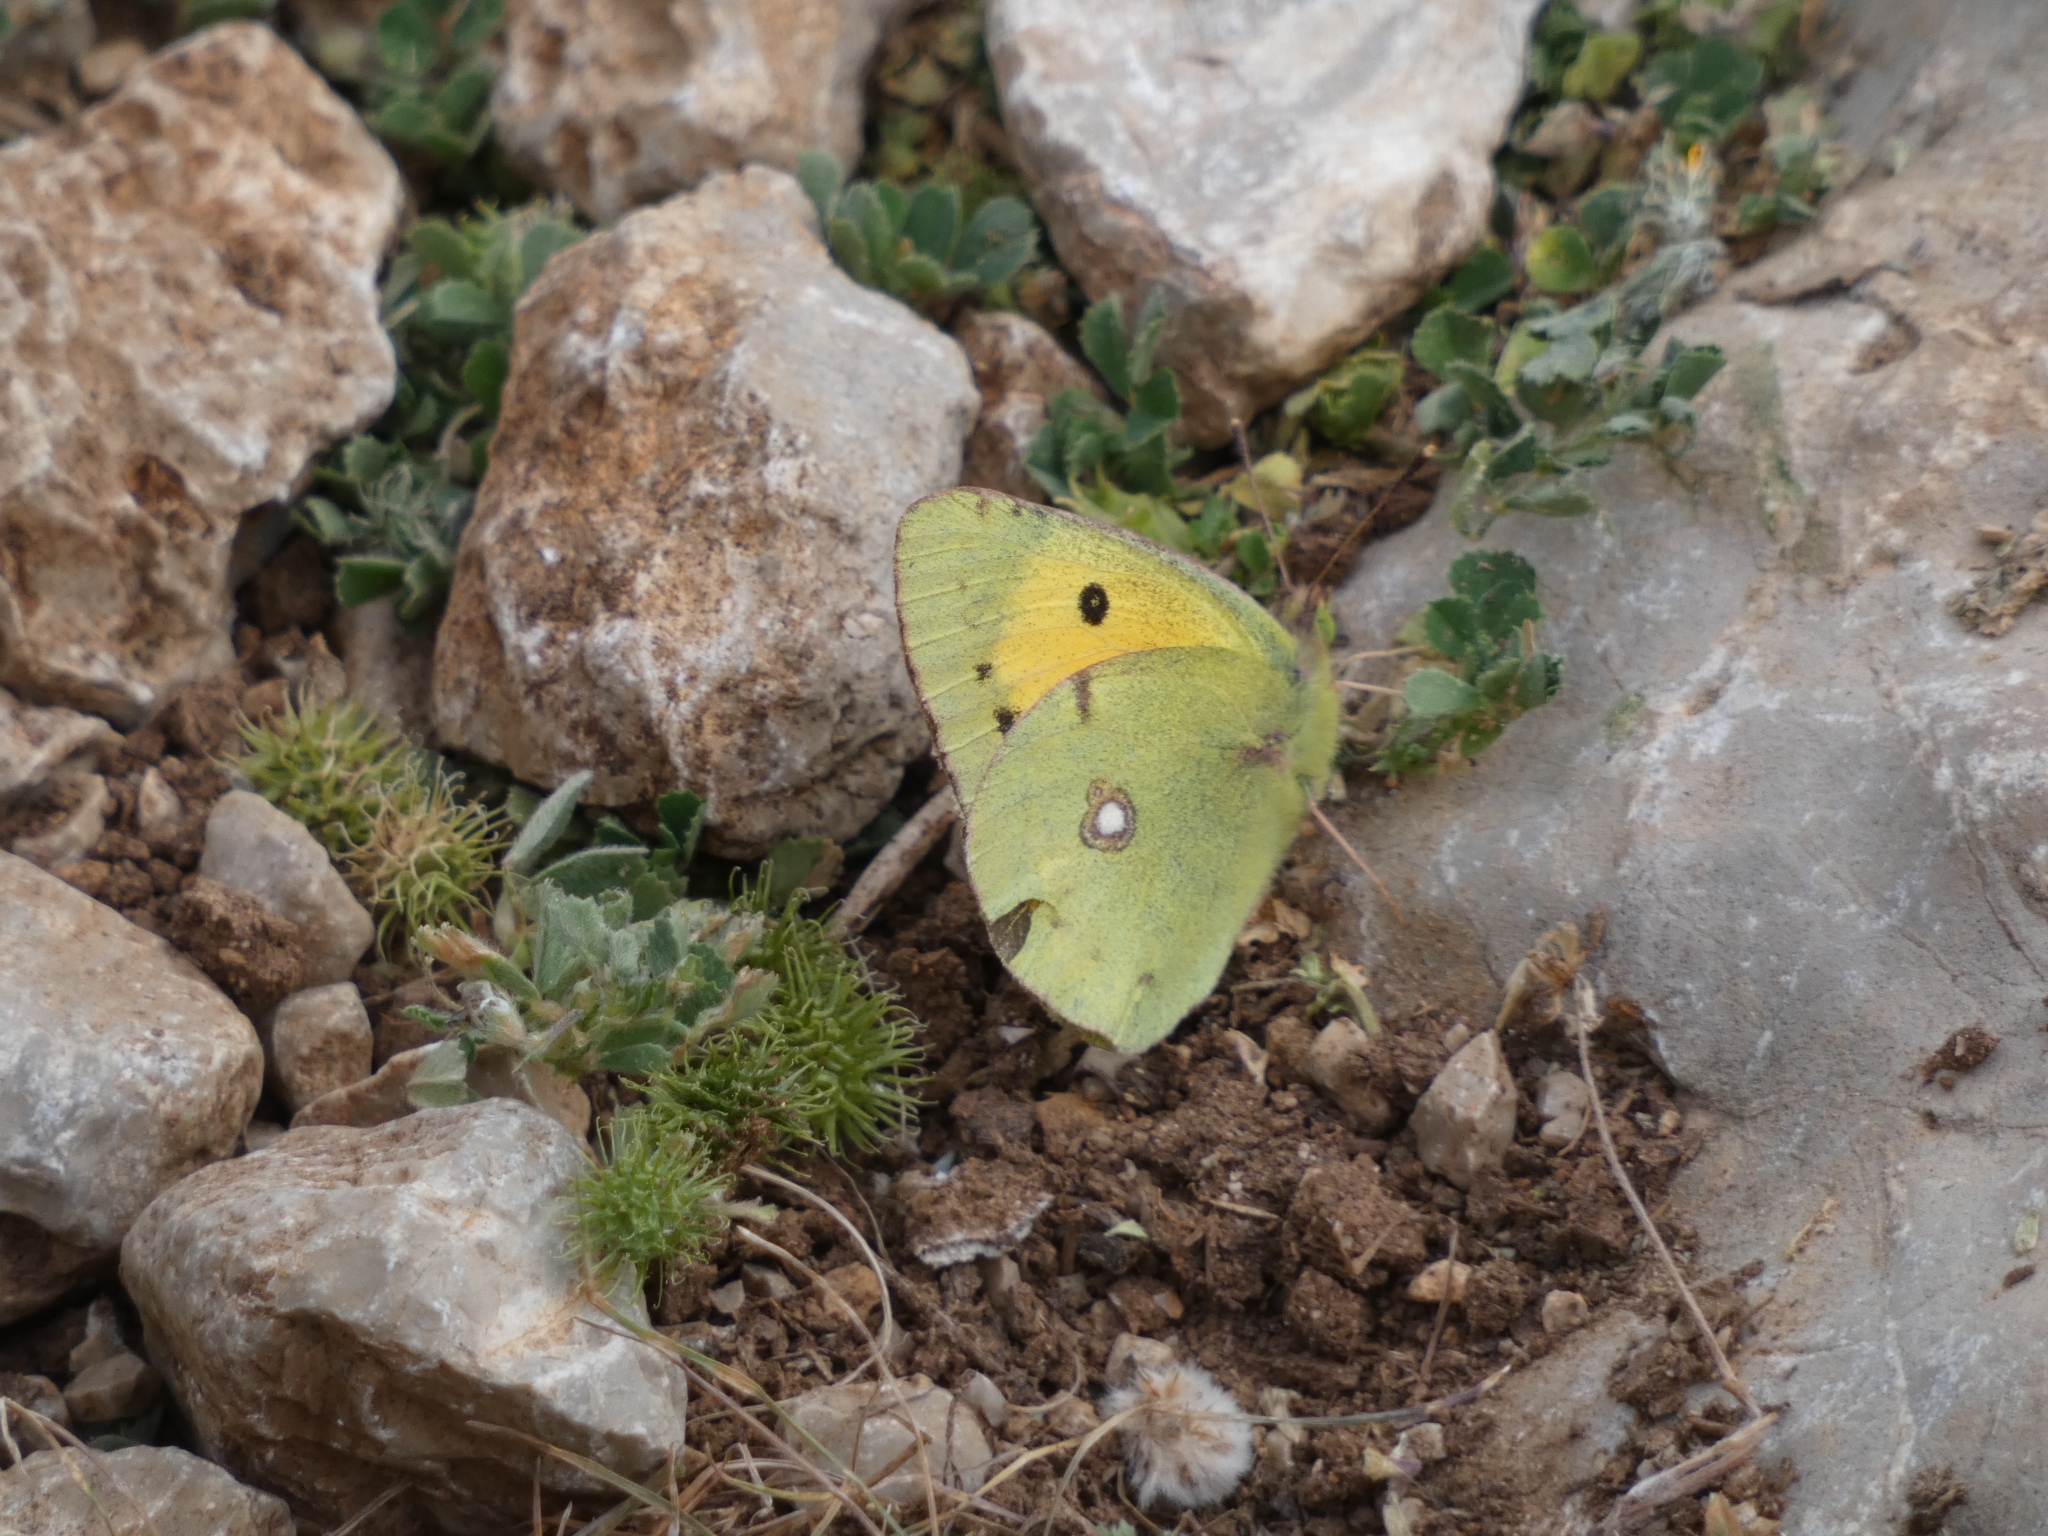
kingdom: Animalia
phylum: Arthropoda
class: Insecta
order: Lepidoptera
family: Pieridae
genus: Colias
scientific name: Colias croceus
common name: Clouded yellow
